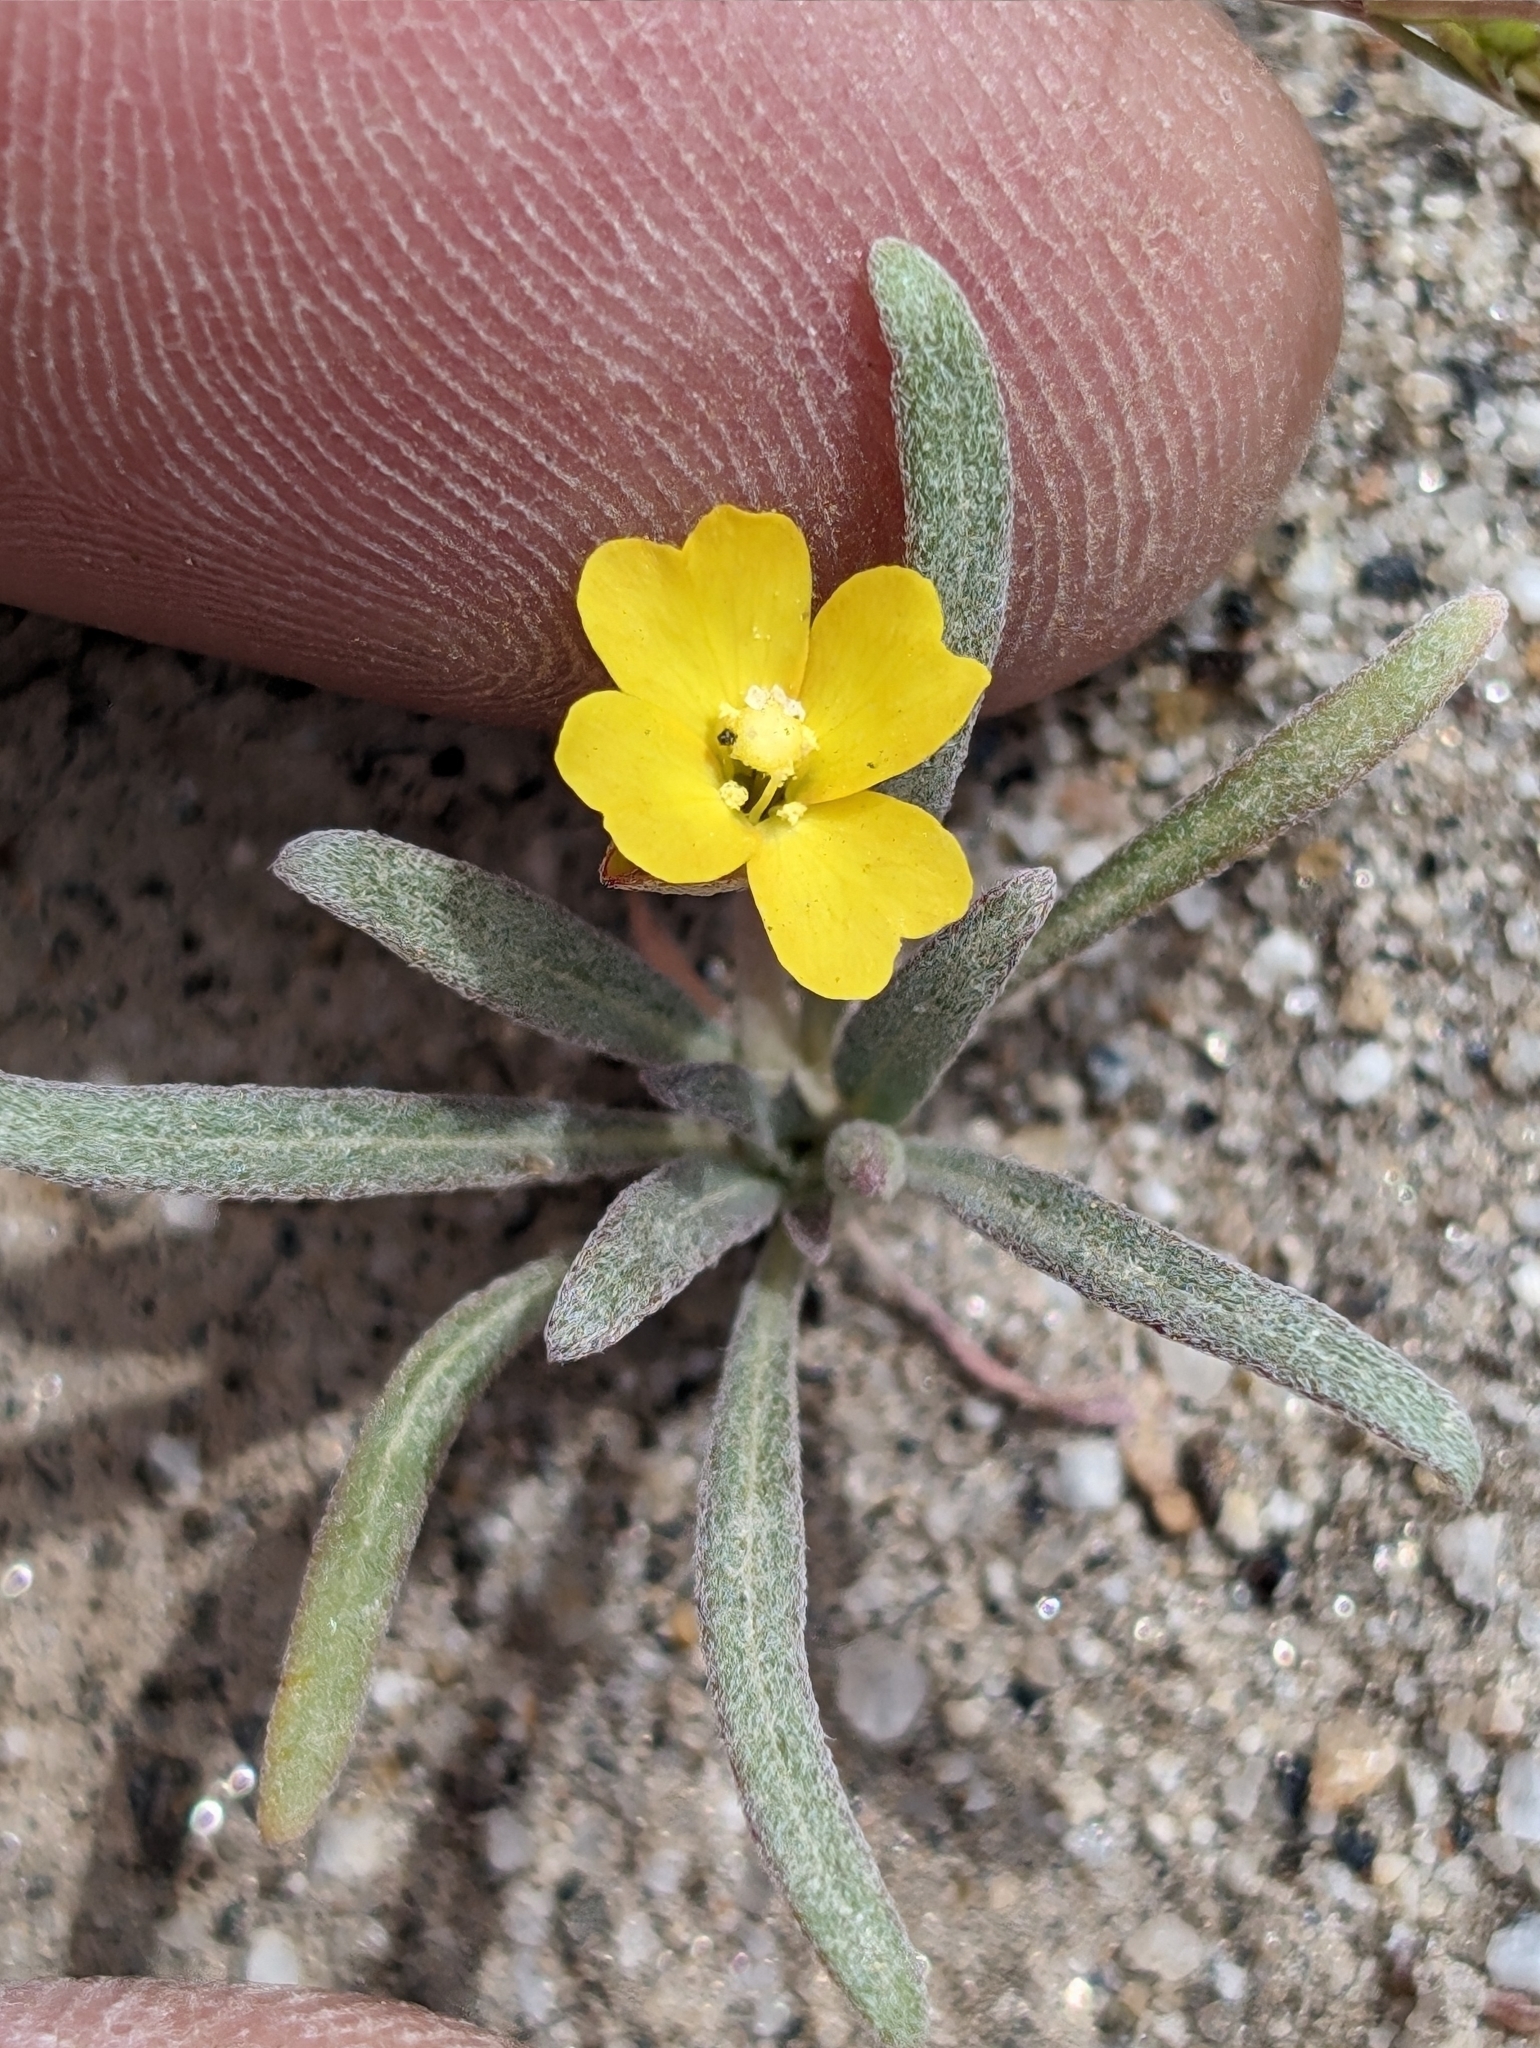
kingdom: Plantae
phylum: Tracheophyta
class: Magnoliopsida
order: Myrtales
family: Onagraceae
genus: Camissoniopsis
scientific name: Camissoniopsis pallida
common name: Paleyellow suncup
